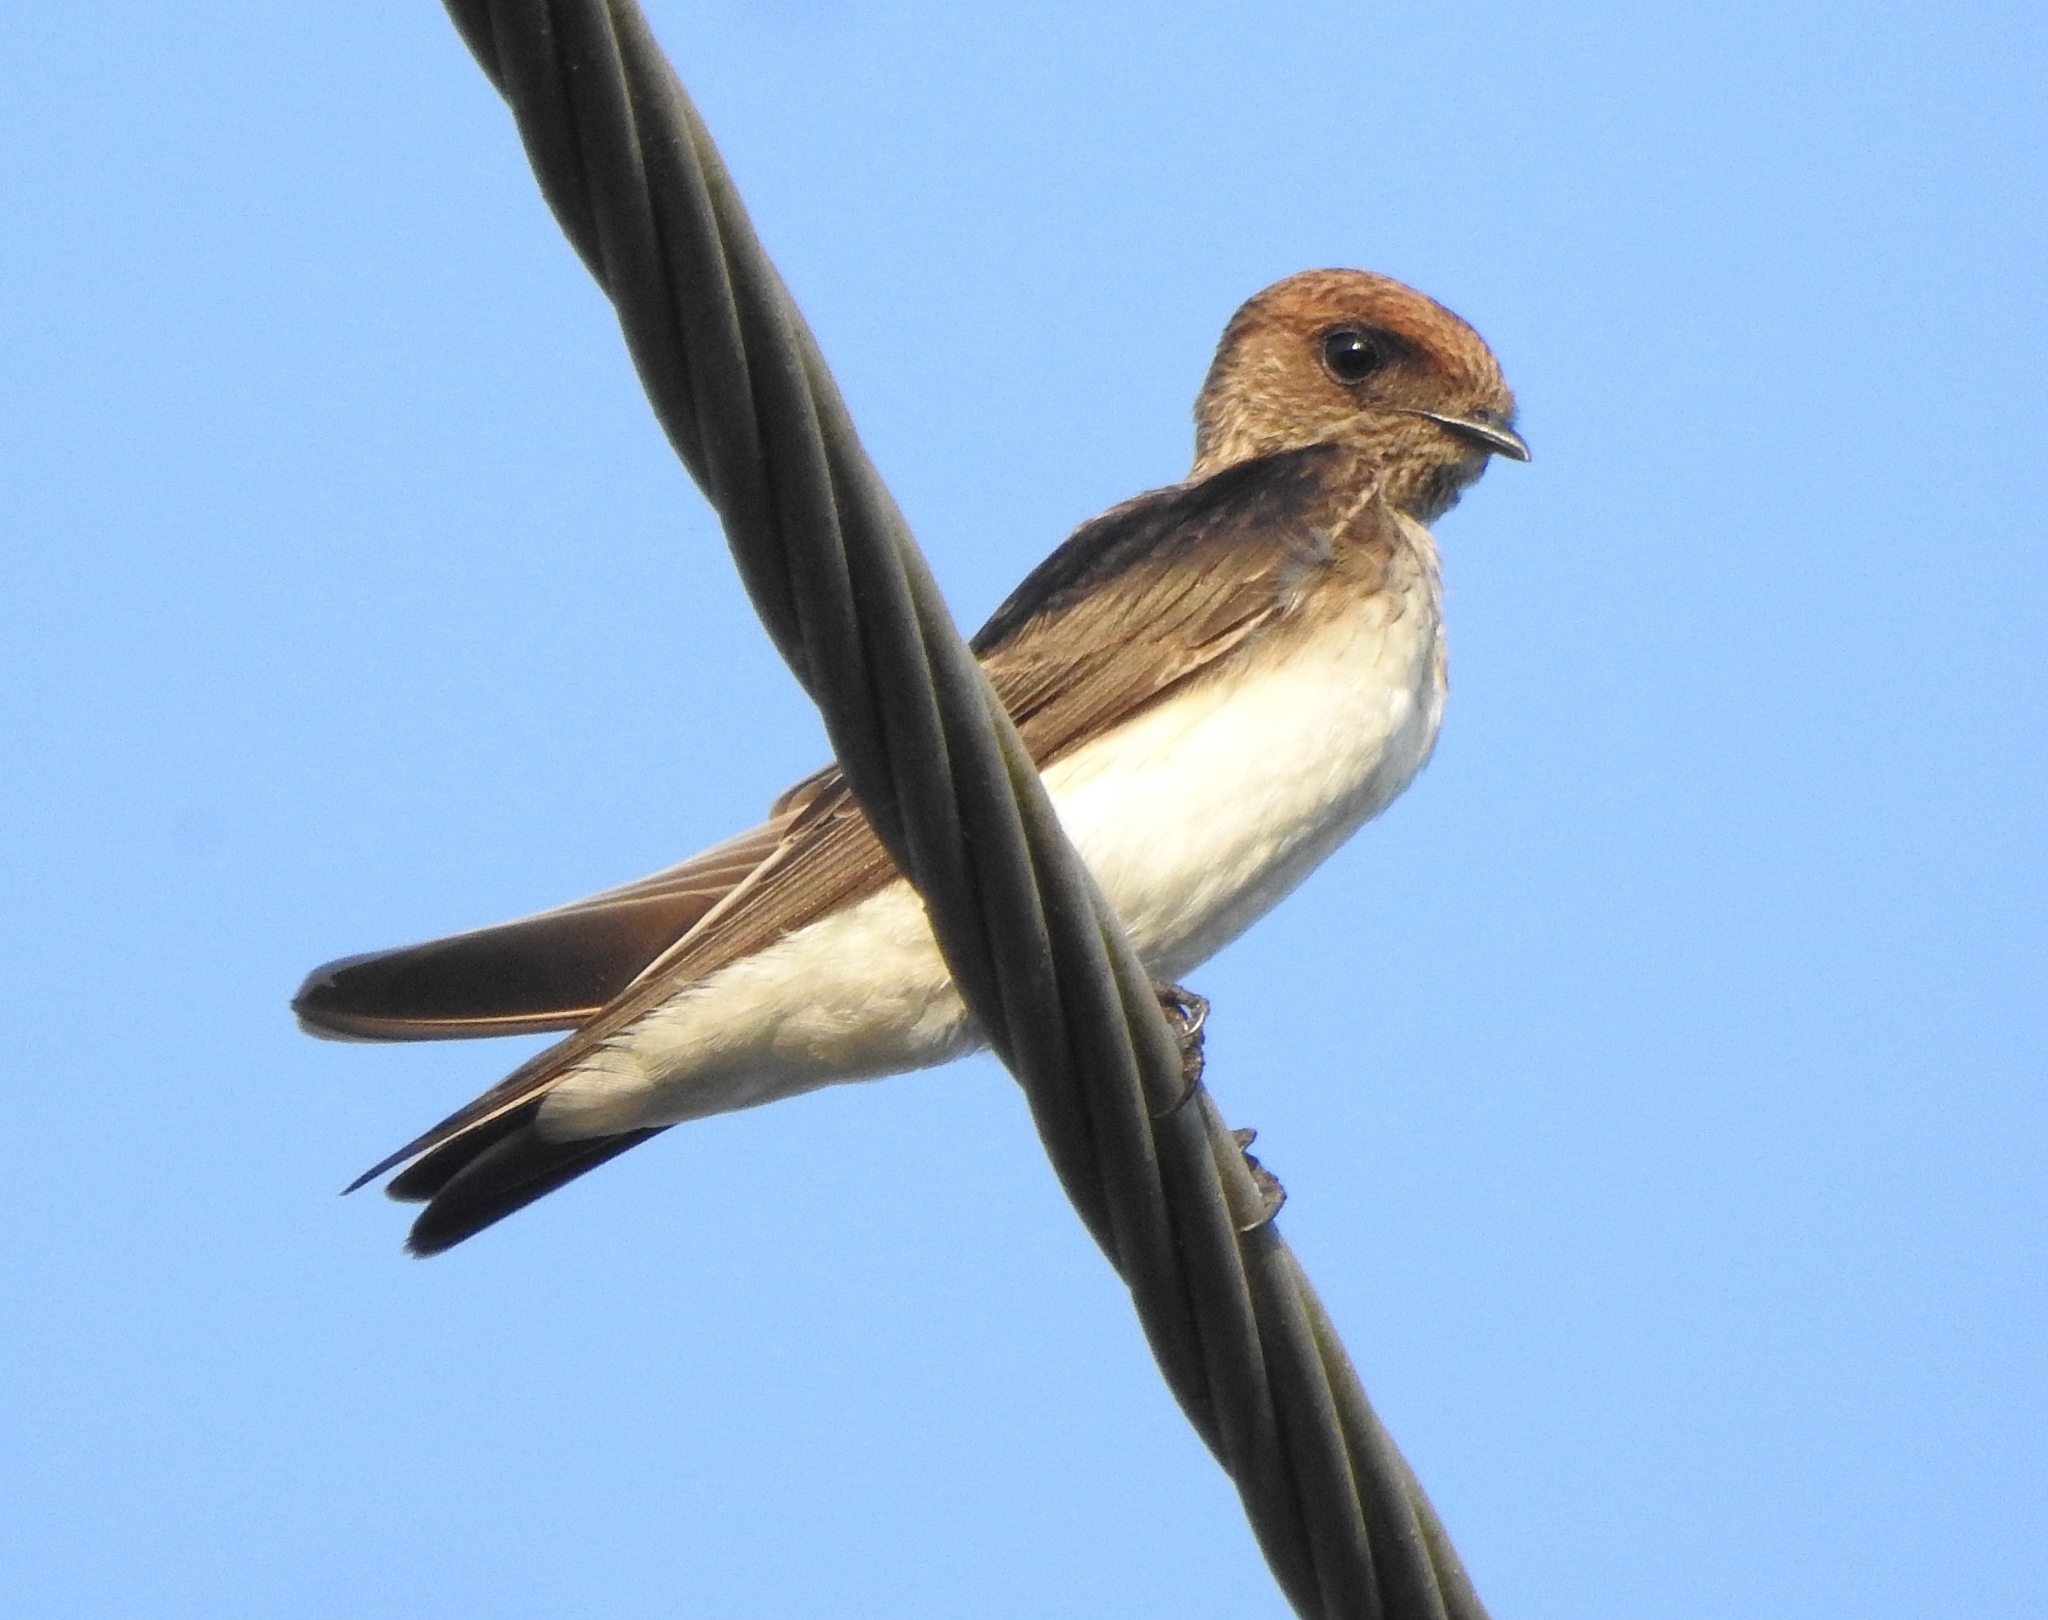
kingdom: Animalia
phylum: Chordata
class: Aves
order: Passeriformes
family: Hirundinidae
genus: Petrochelidon
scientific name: Petrochelidon fluvicola
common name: Streak-throated swallow
